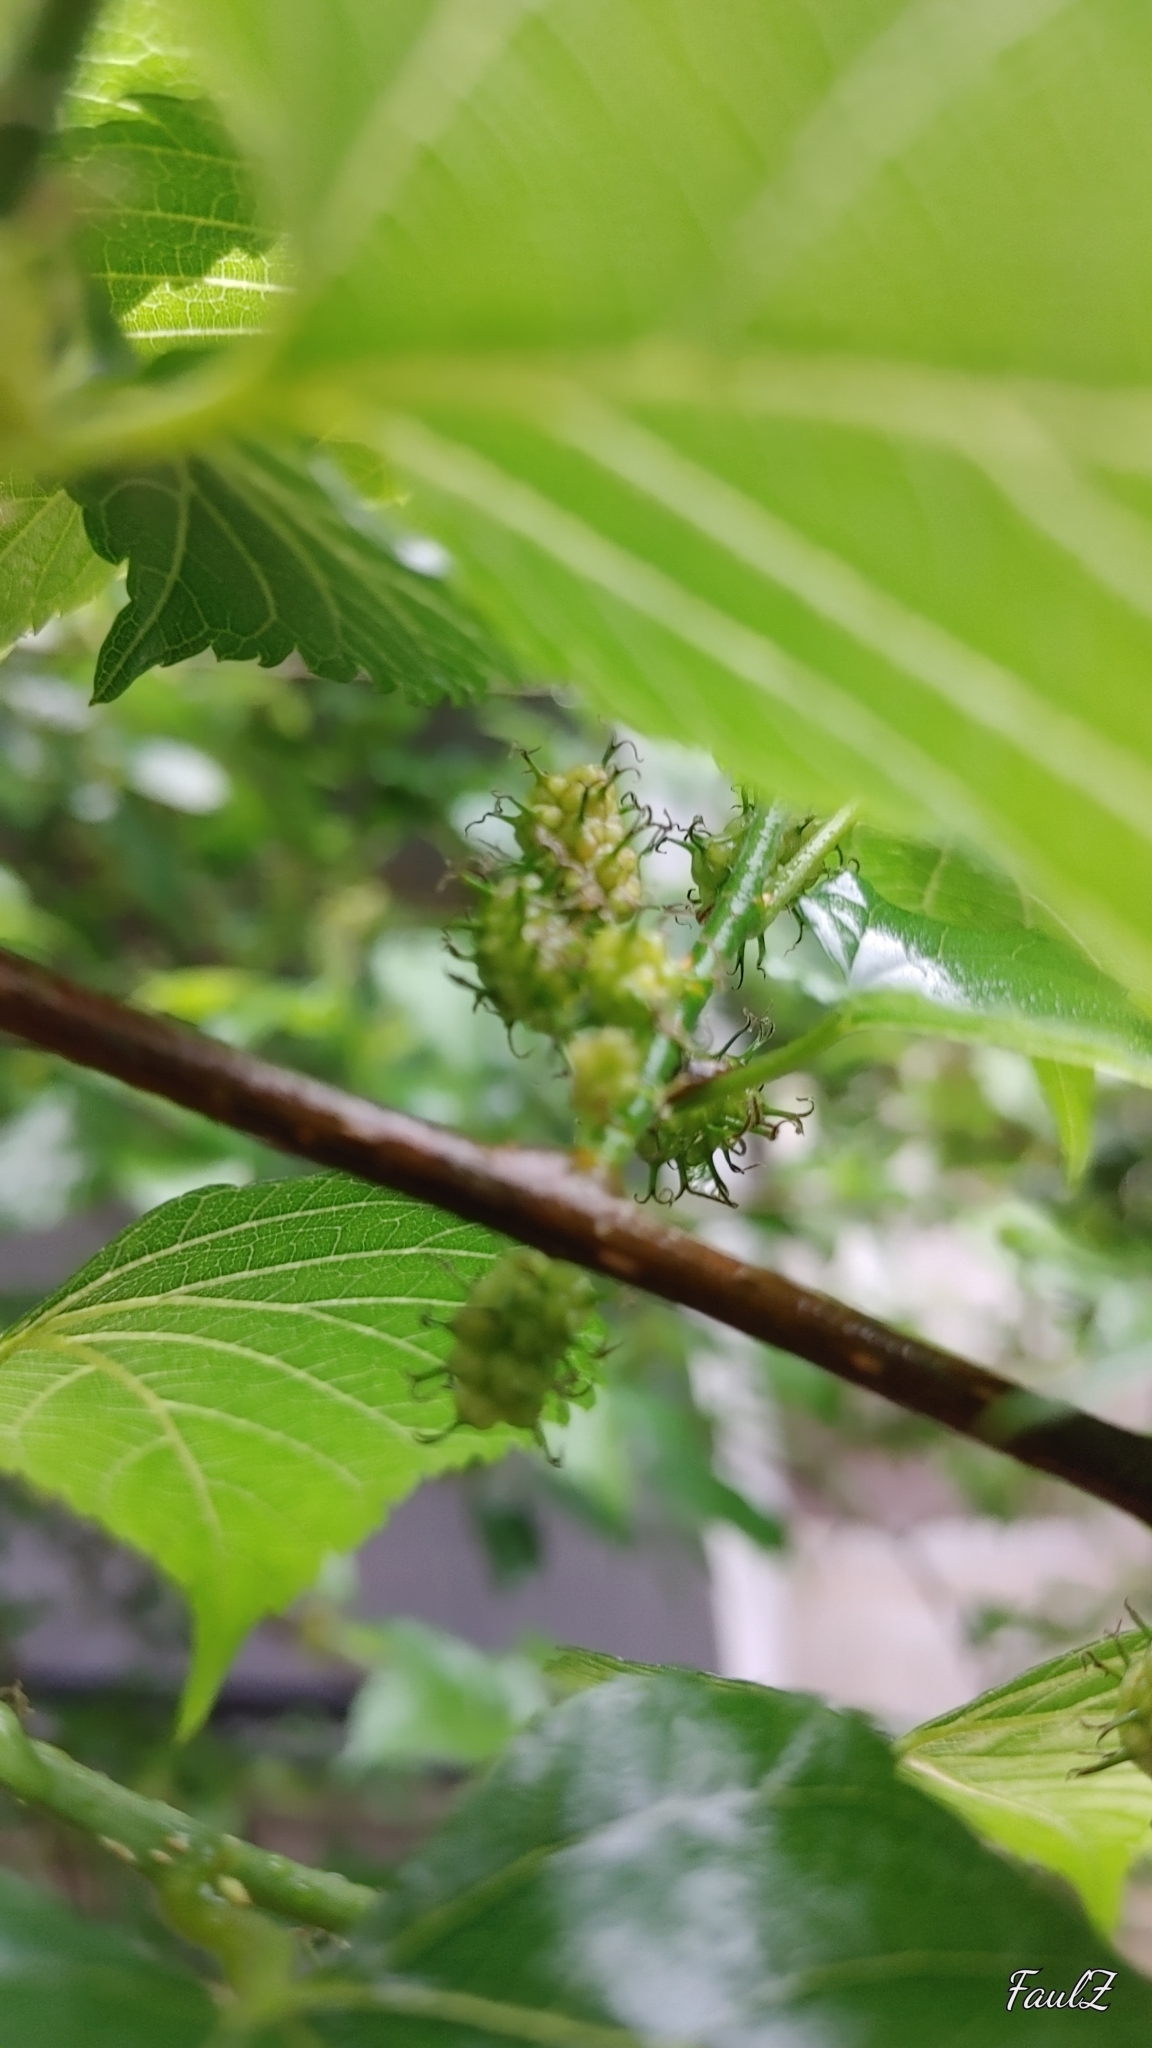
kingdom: Plantae
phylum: Tracheophyta
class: Magnoliopsida
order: Rosales
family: Moraceae
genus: Morus
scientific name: Morus indica
